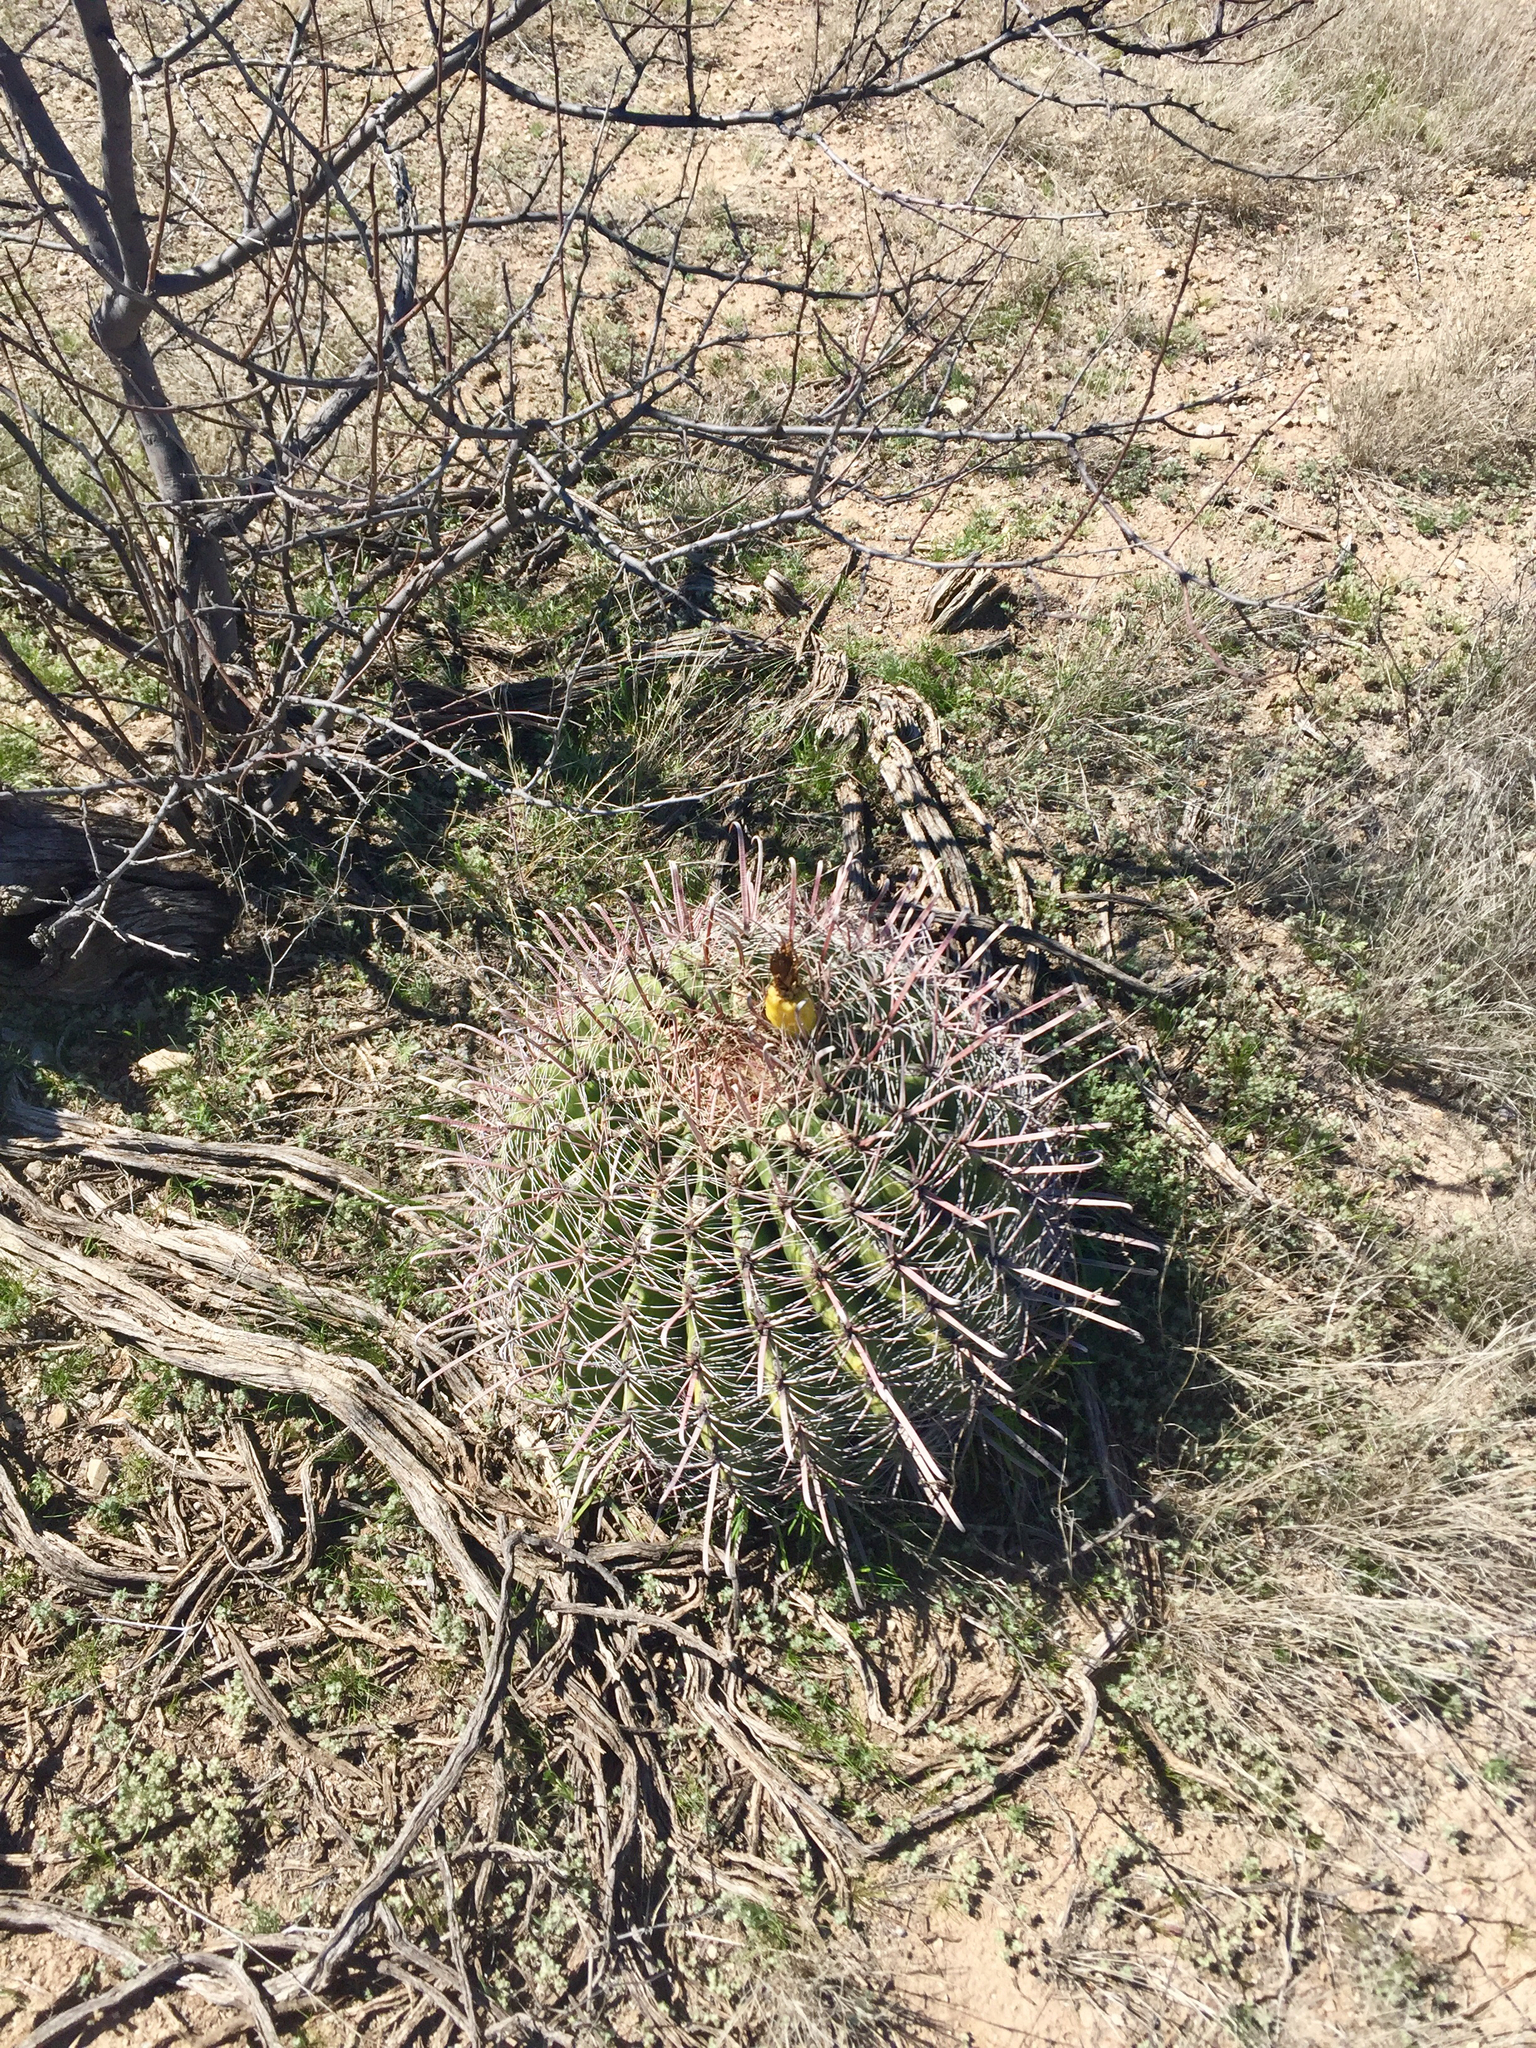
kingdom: Plantae
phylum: Tracheophyta
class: Magnoliopsida
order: Caryophyllales
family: Cactaceae
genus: Ferocactus
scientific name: Ferocactus wislizeni
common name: Candy barrel cactus
